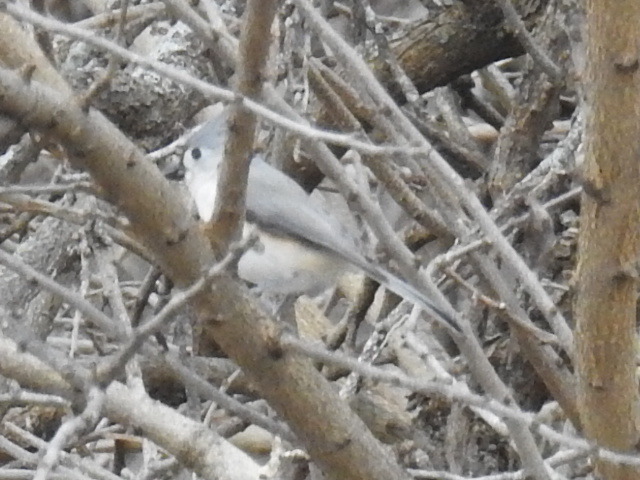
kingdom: Animalia
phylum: Chordata
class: Aves
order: Passeriformes
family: Paridae
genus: Baeolophus
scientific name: Baeolophus bicolor
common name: Tufted titmouse
